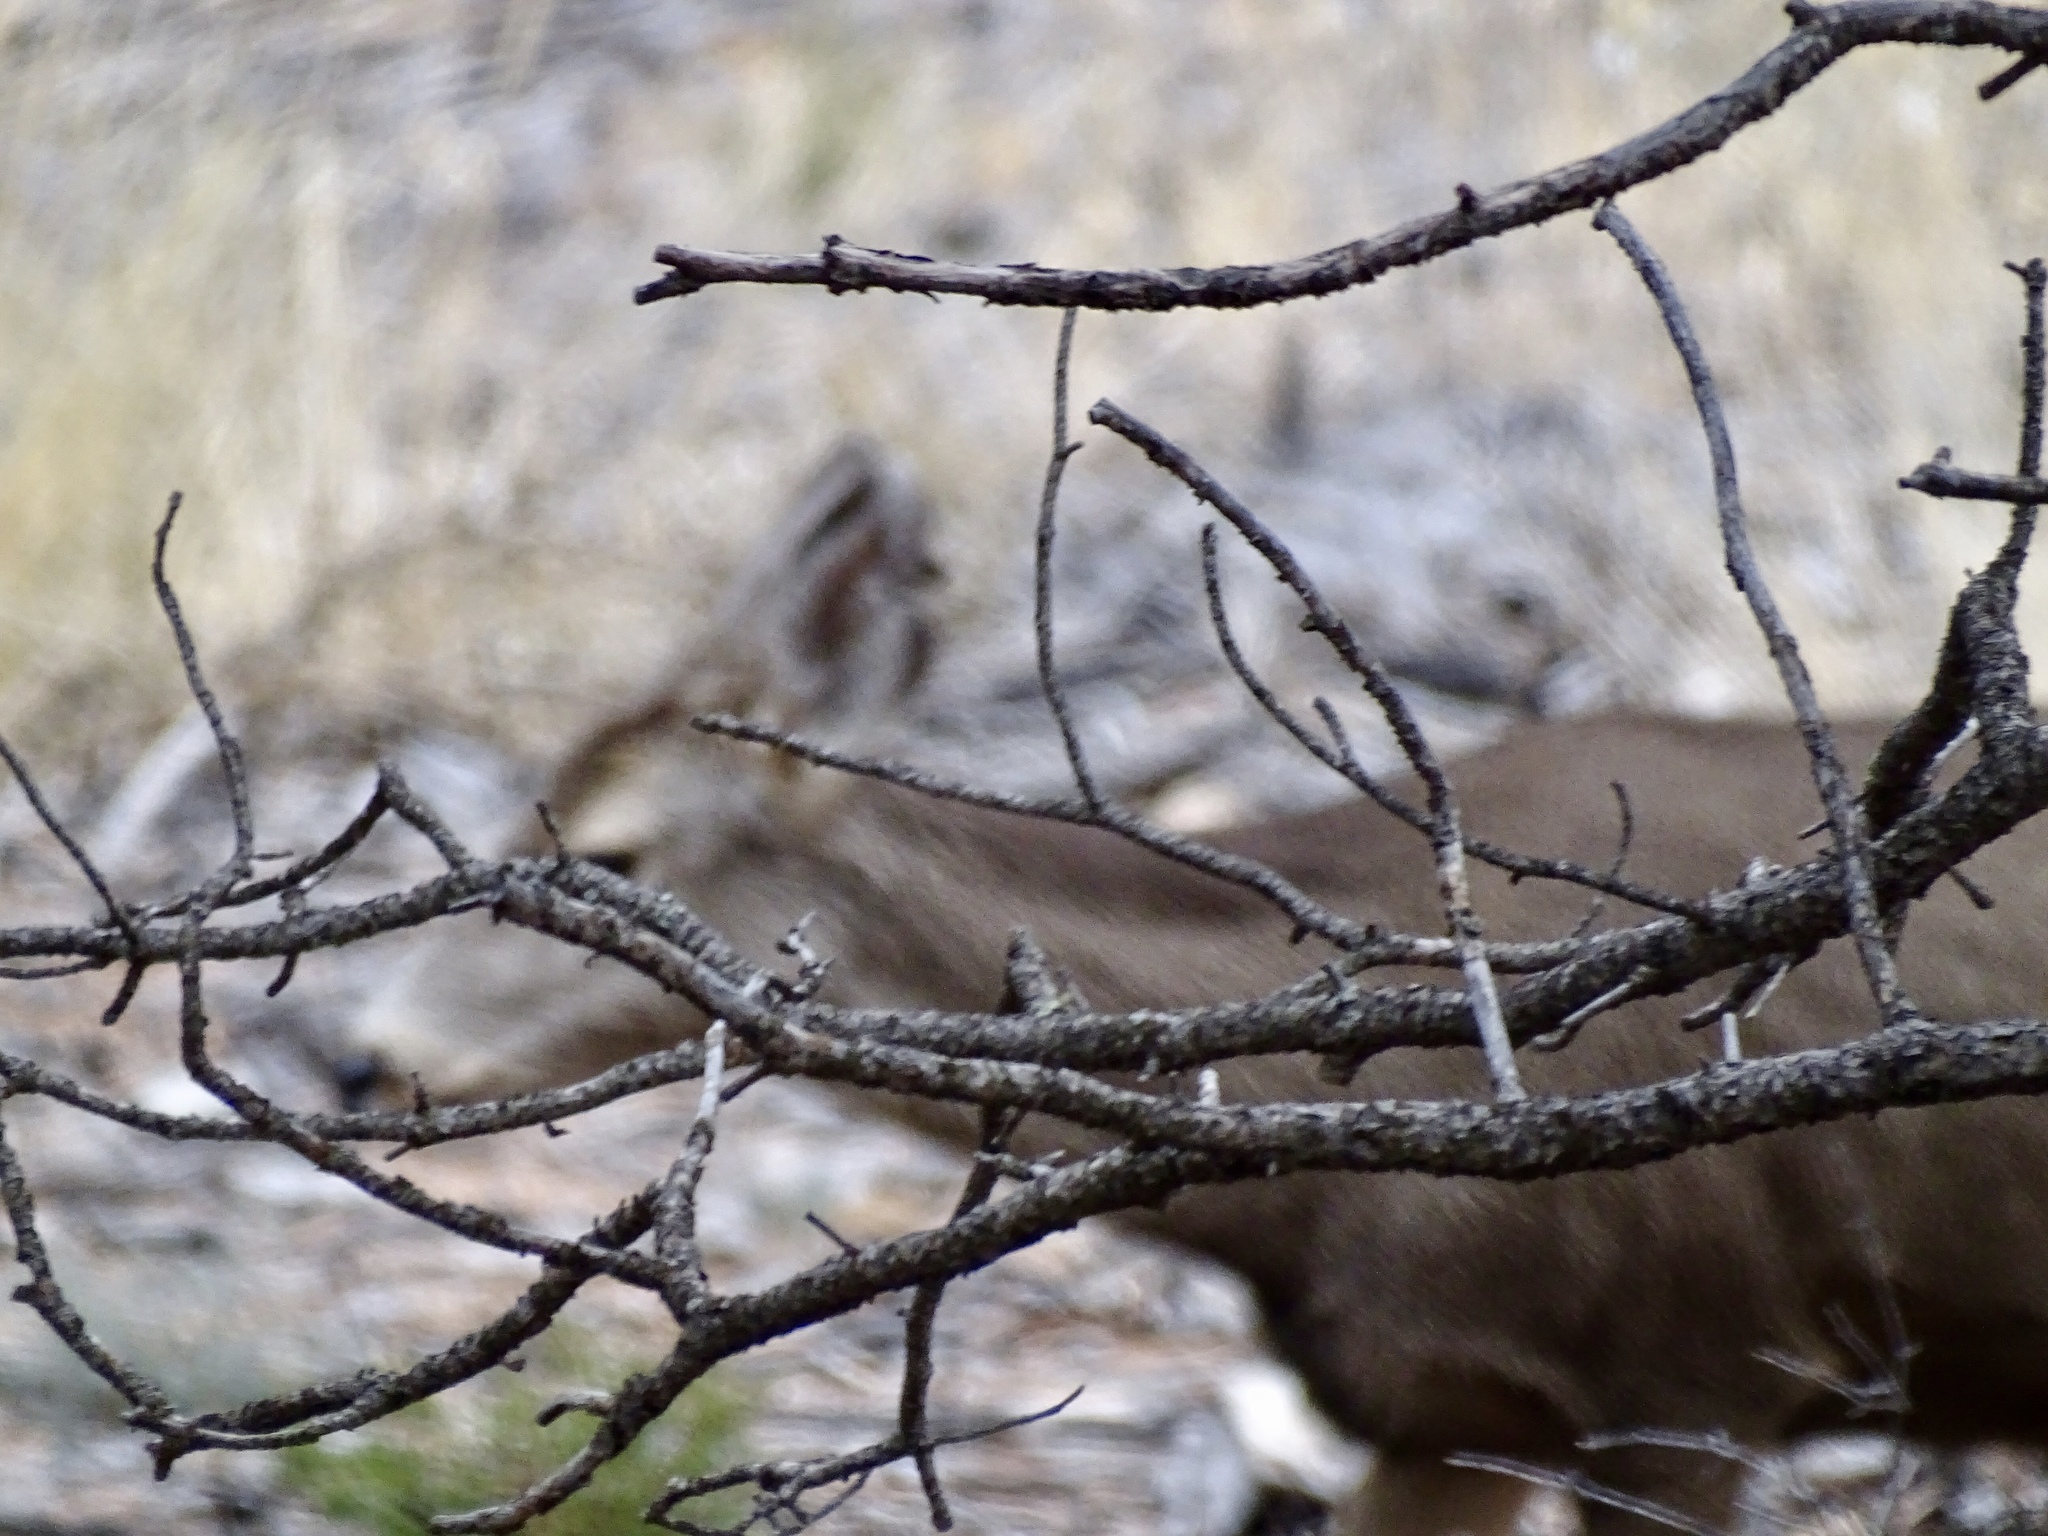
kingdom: Animalia
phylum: Chordata
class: Mammalia
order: Artiodactyla
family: Cervidae
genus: Odocoileus
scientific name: Odocoileus hemionus
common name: Mule deer
